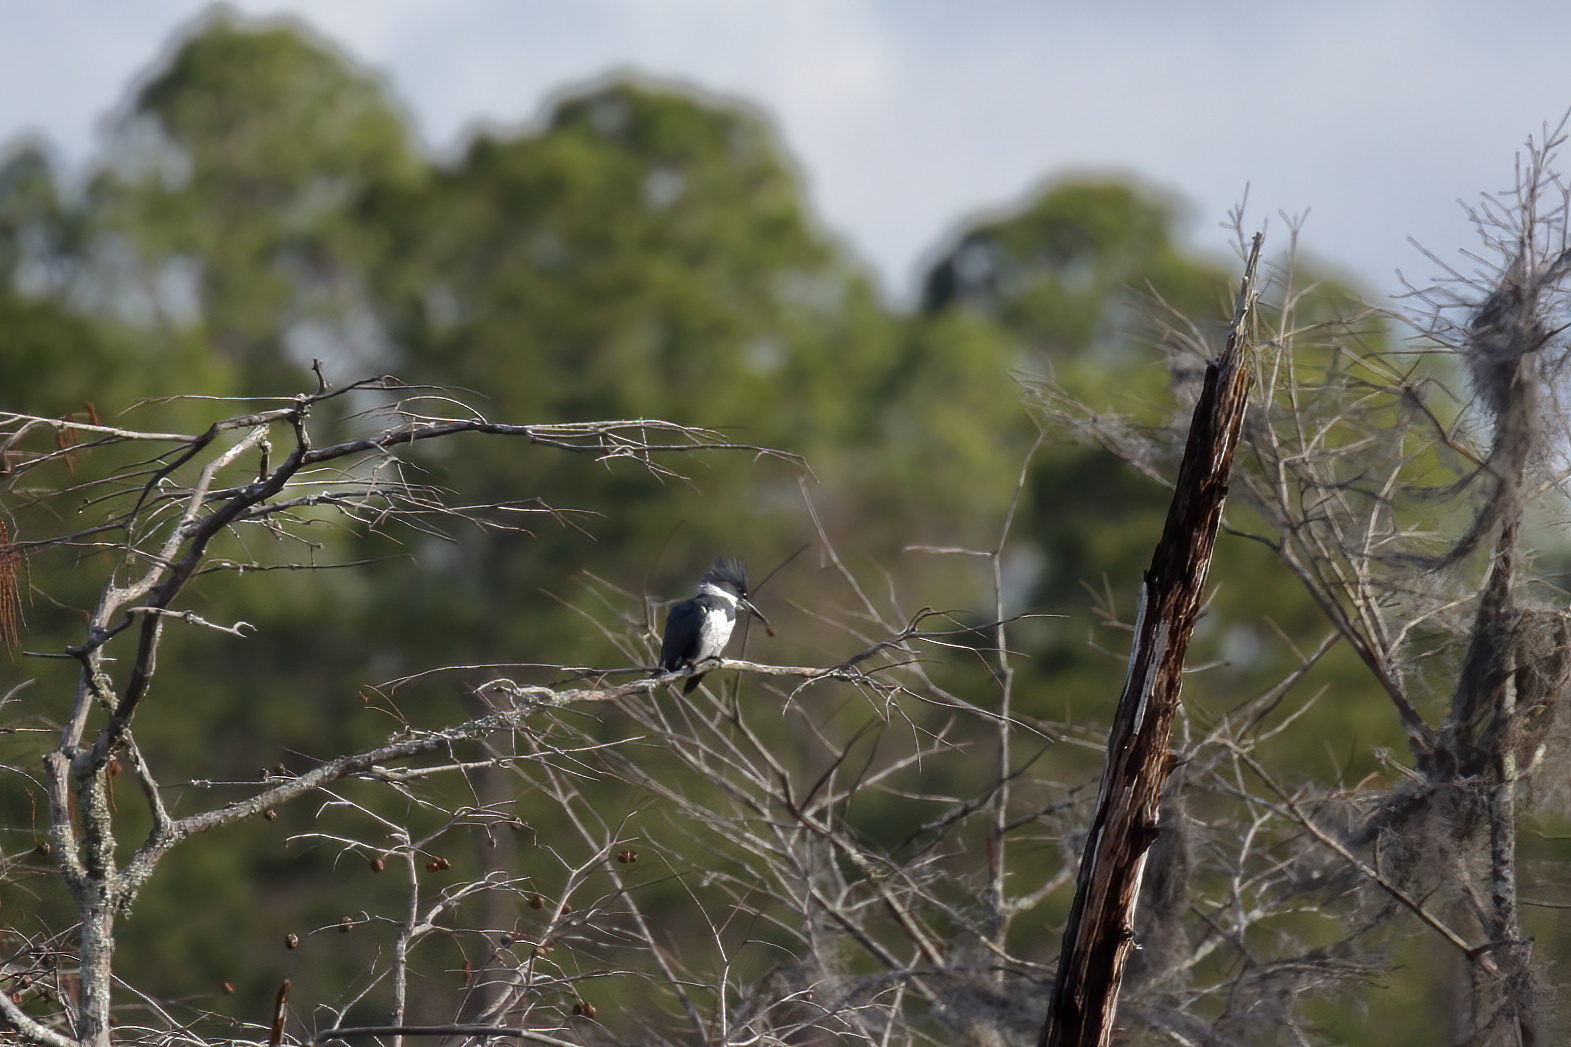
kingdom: Animalia
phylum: Chordata
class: Aves
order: Coraciiformes
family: Alcedinidae
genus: Megaceryle
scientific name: Megaceryle alcyon
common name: Belted kingfisher
